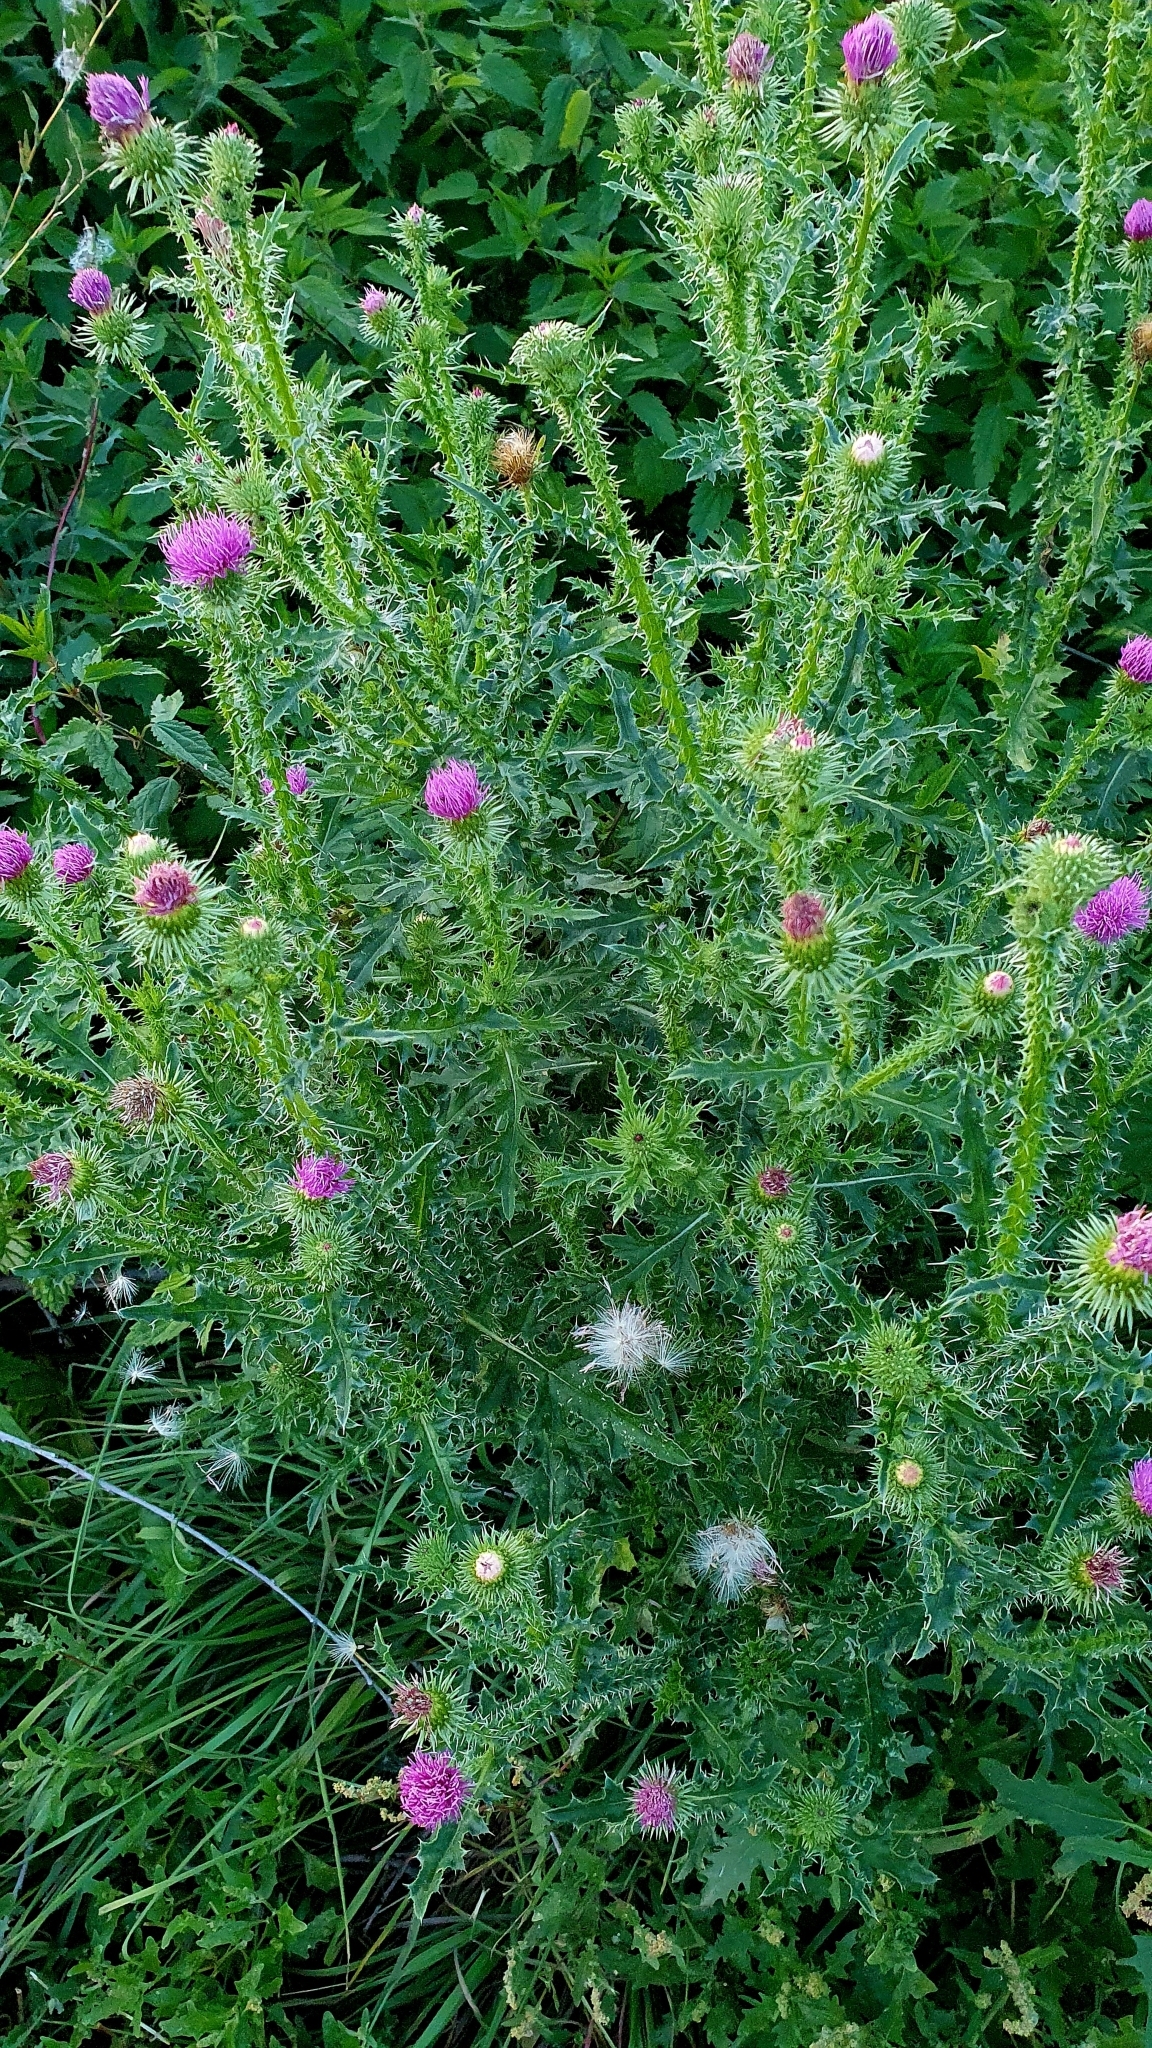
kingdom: Plantae
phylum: Tracheophyta
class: Magnoliopsida
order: Asterales
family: Asteraceae
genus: Carduus
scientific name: Carduus acanthoides
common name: Plumeless thistle
